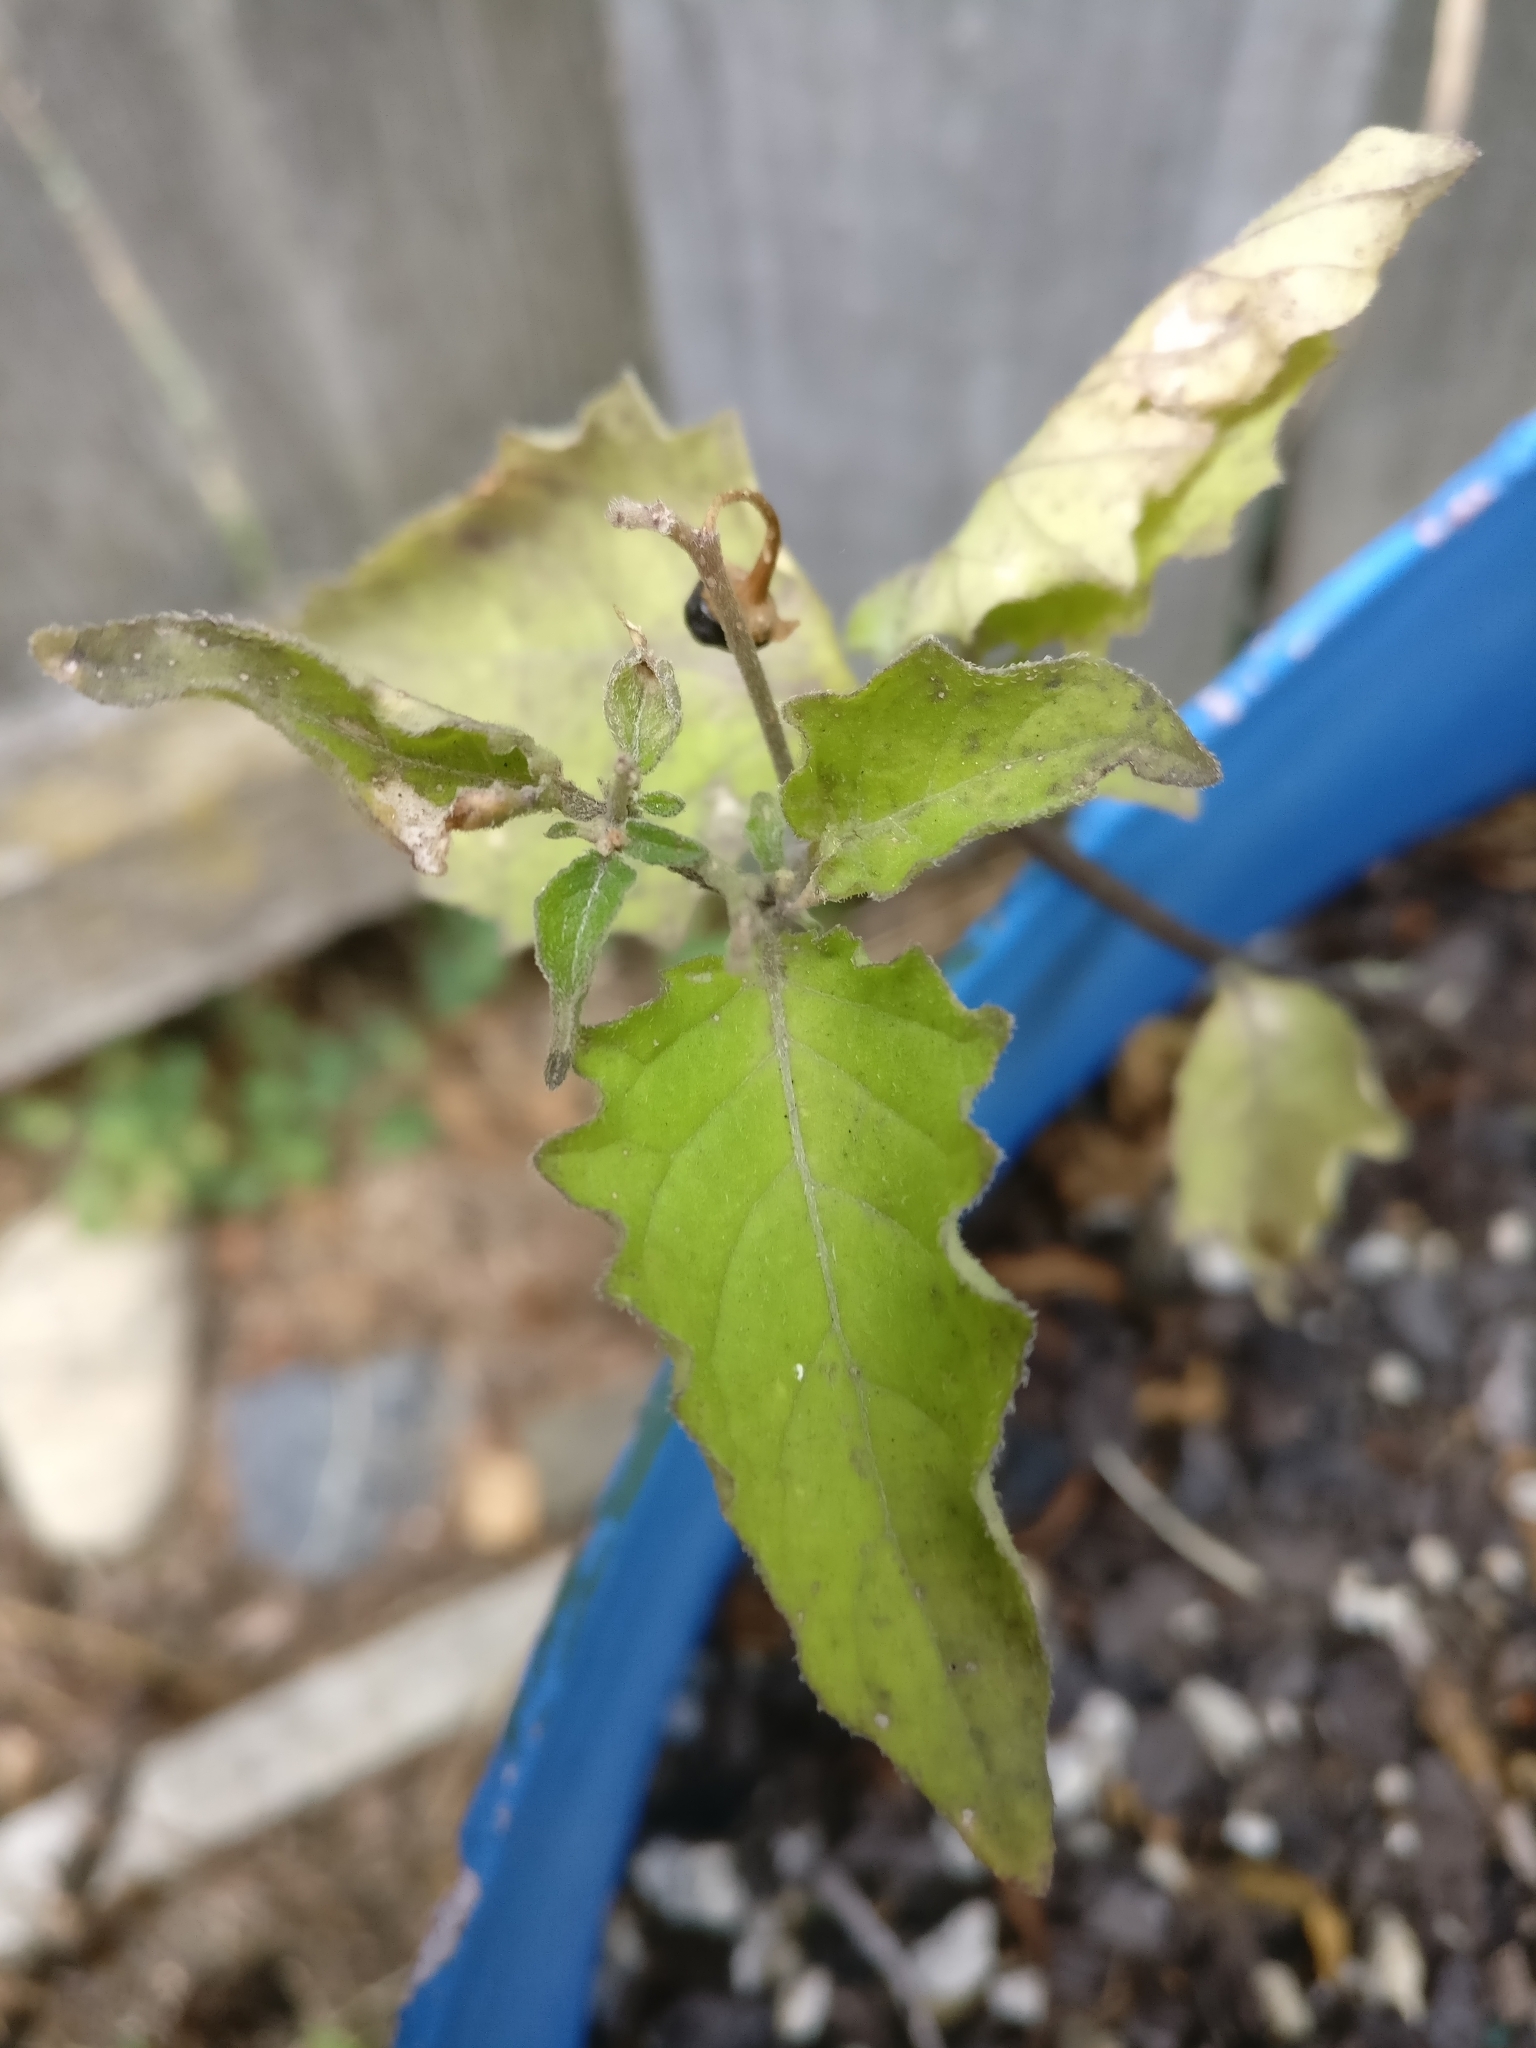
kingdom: Plantae
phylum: Tracheophyta
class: Magnoliopsida
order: Solanales
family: Solanaceae
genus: Solanum
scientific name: Solanum nigrum
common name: Black nightshade
